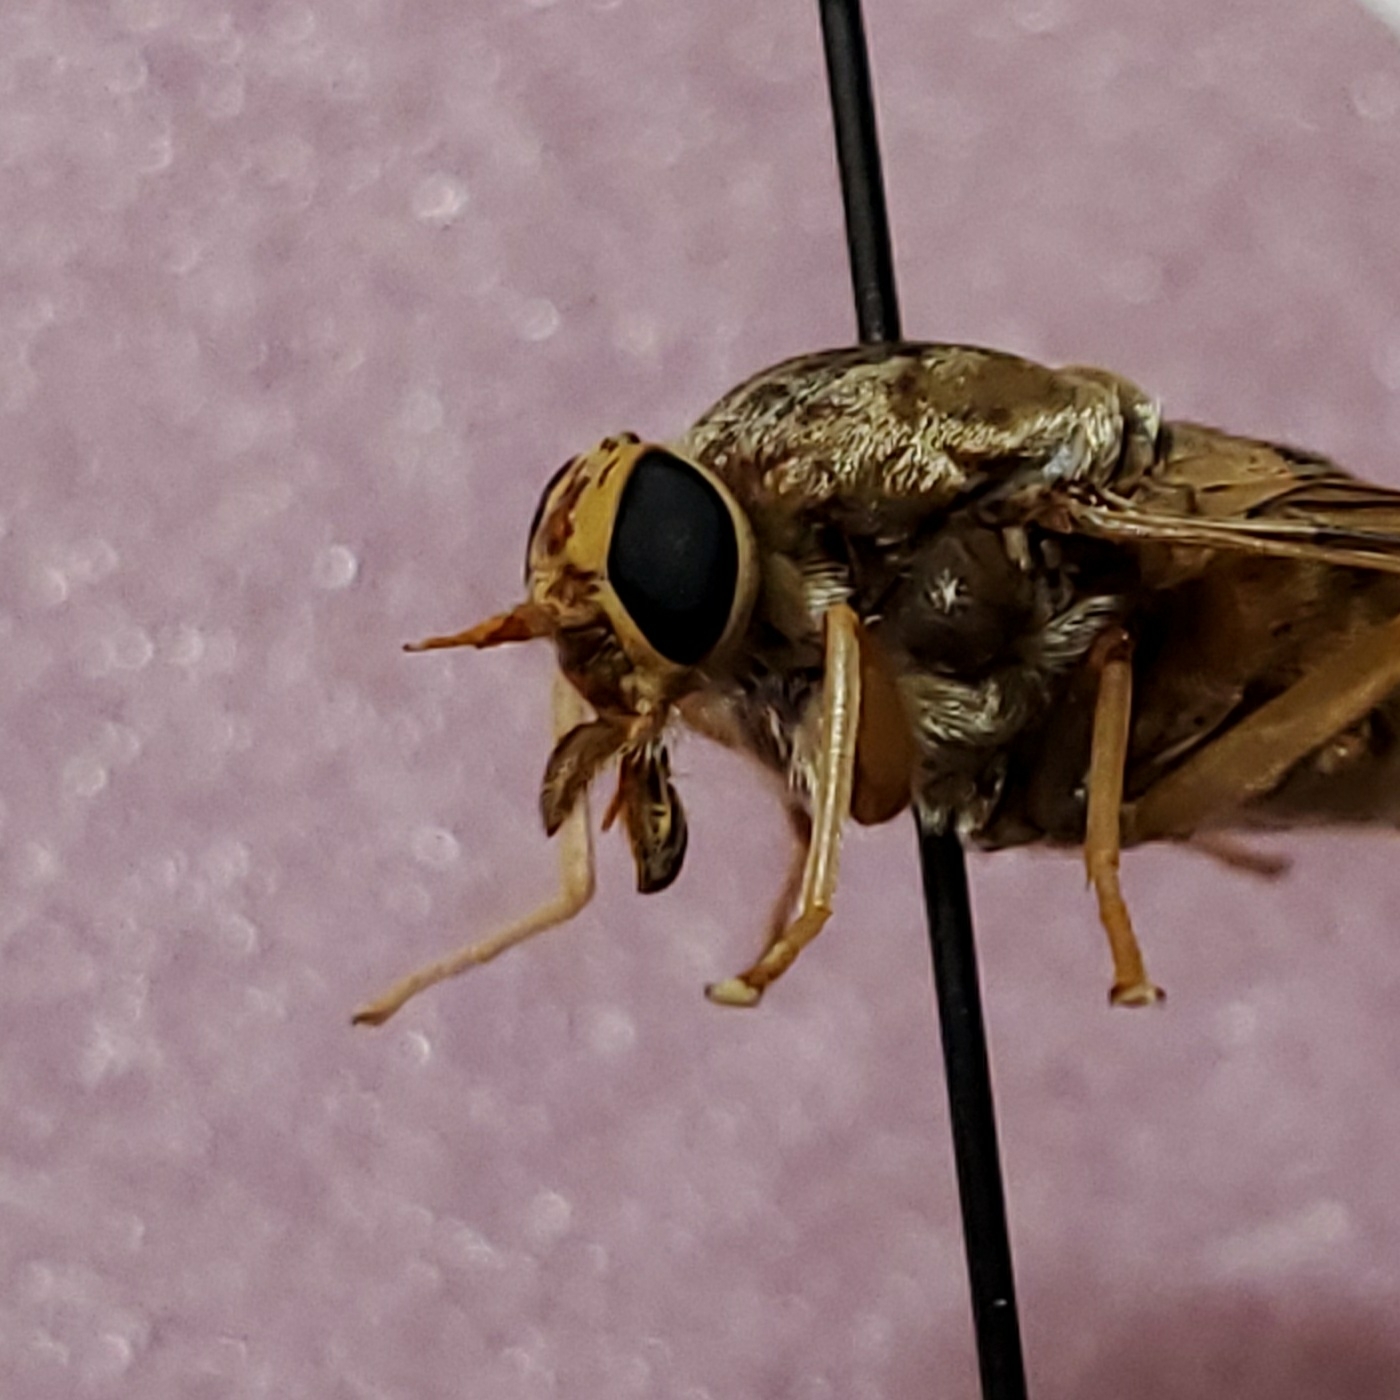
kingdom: Animalia
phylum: Arthropoda
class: Insecta
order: Diptera
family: Tabanidae
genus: Goniops
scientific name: Goniops chrysocoma
